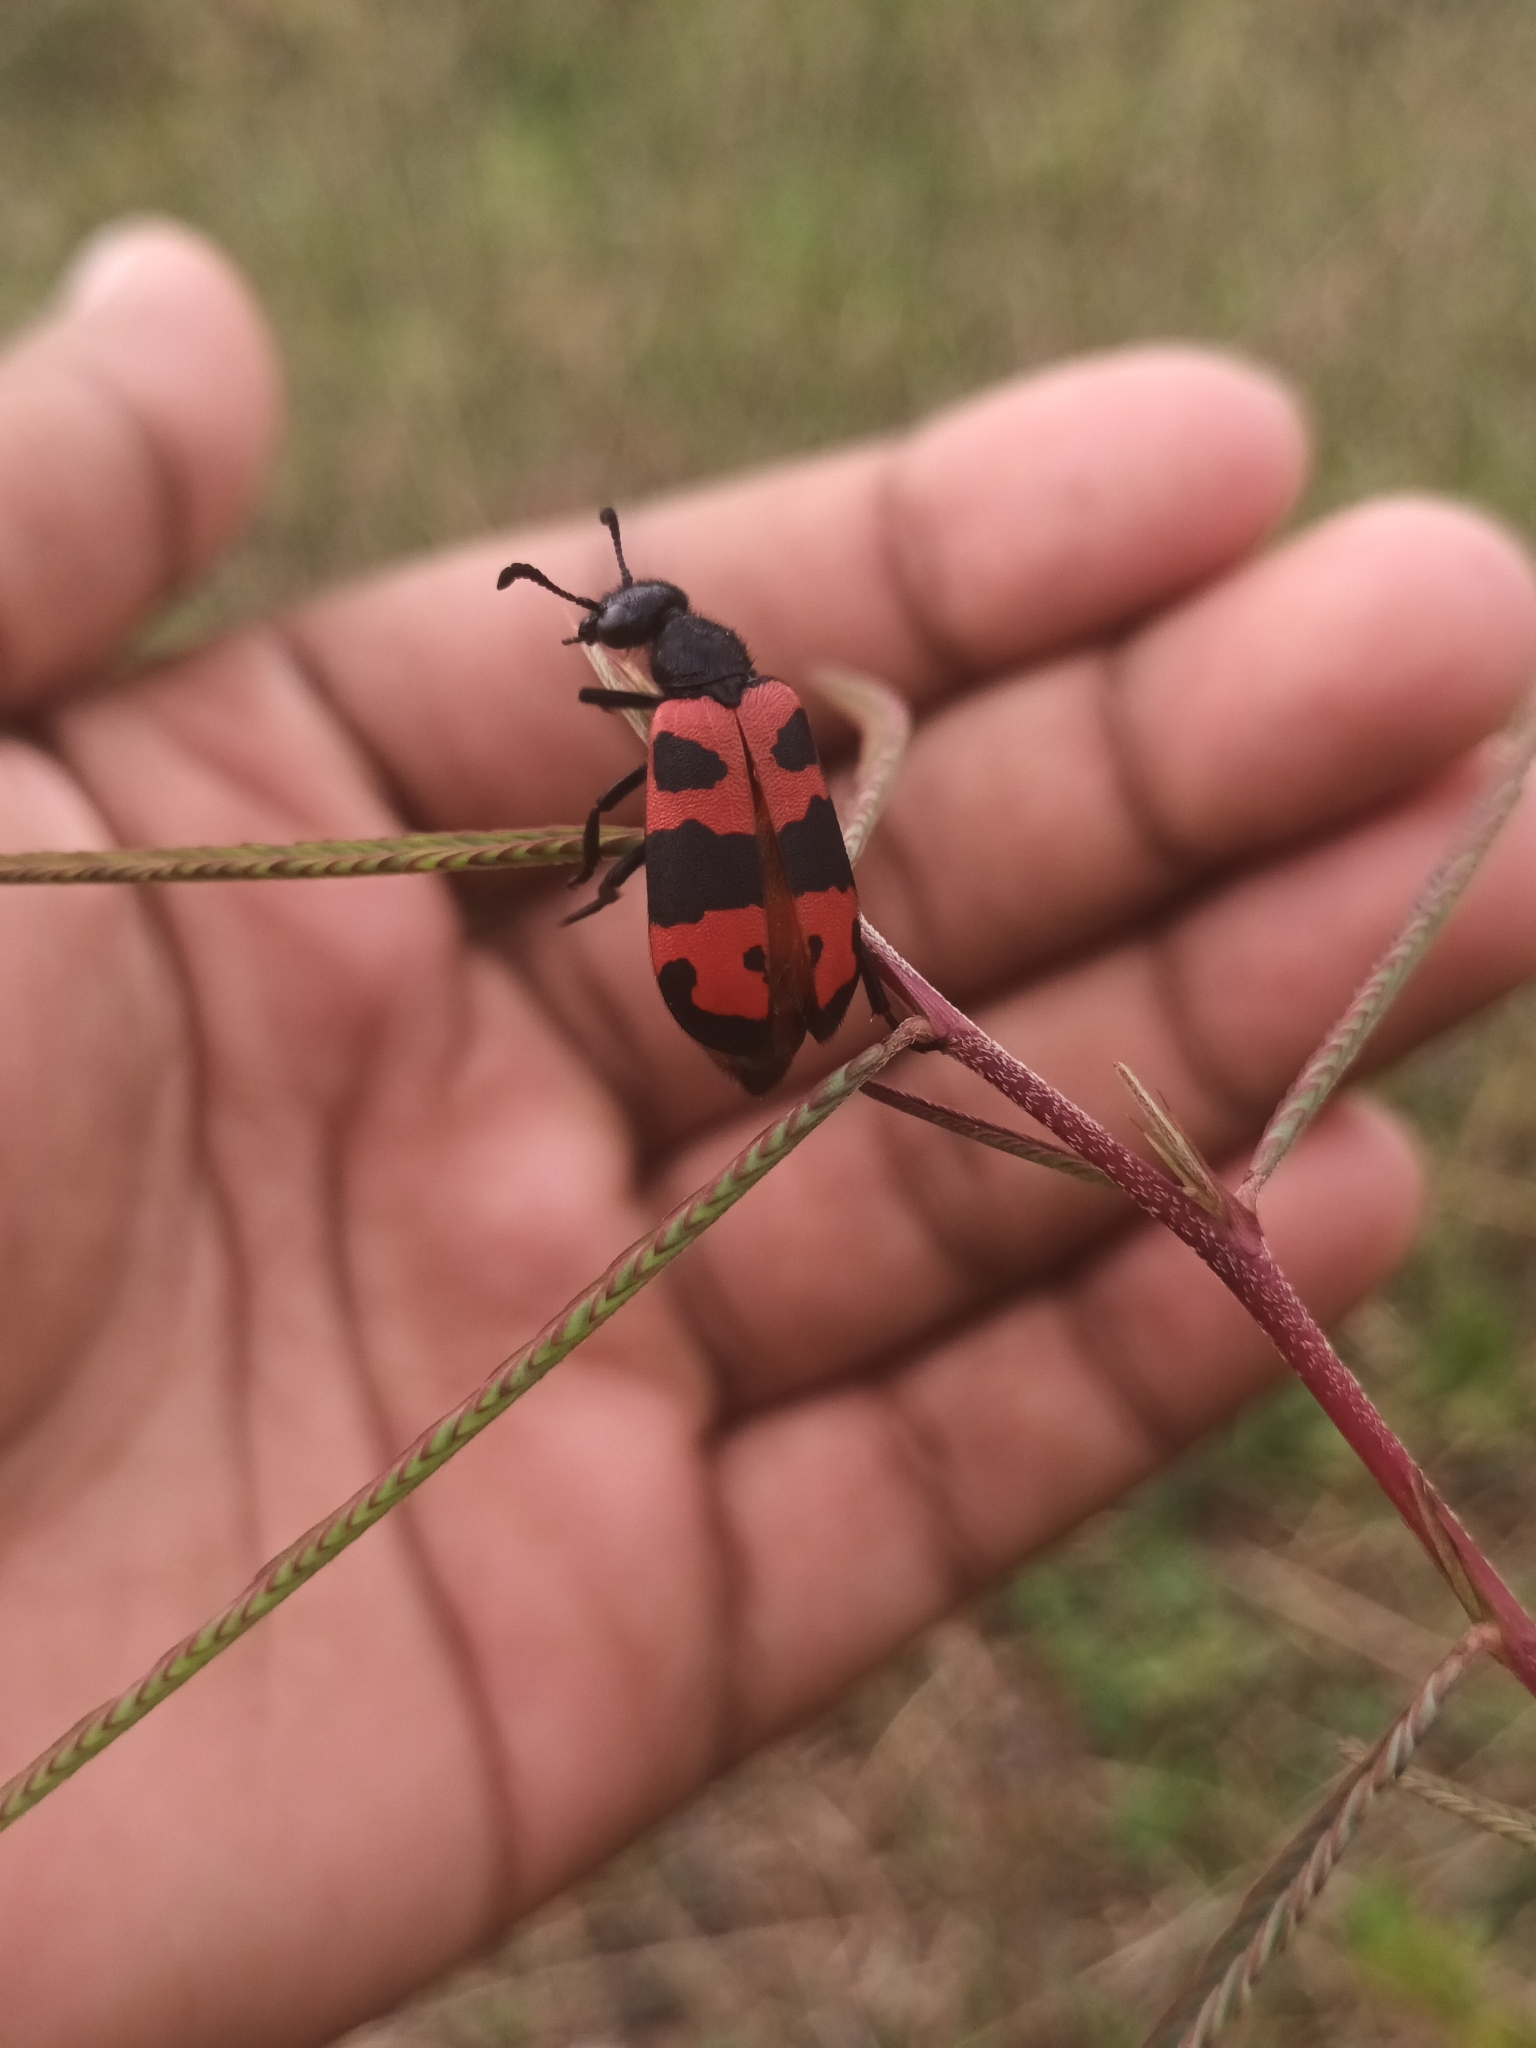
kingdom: Animalia
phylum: Arthropoda
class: Insecta
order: Coleoptera
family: Meloidae
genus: Hycleus
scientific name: Hycleus
